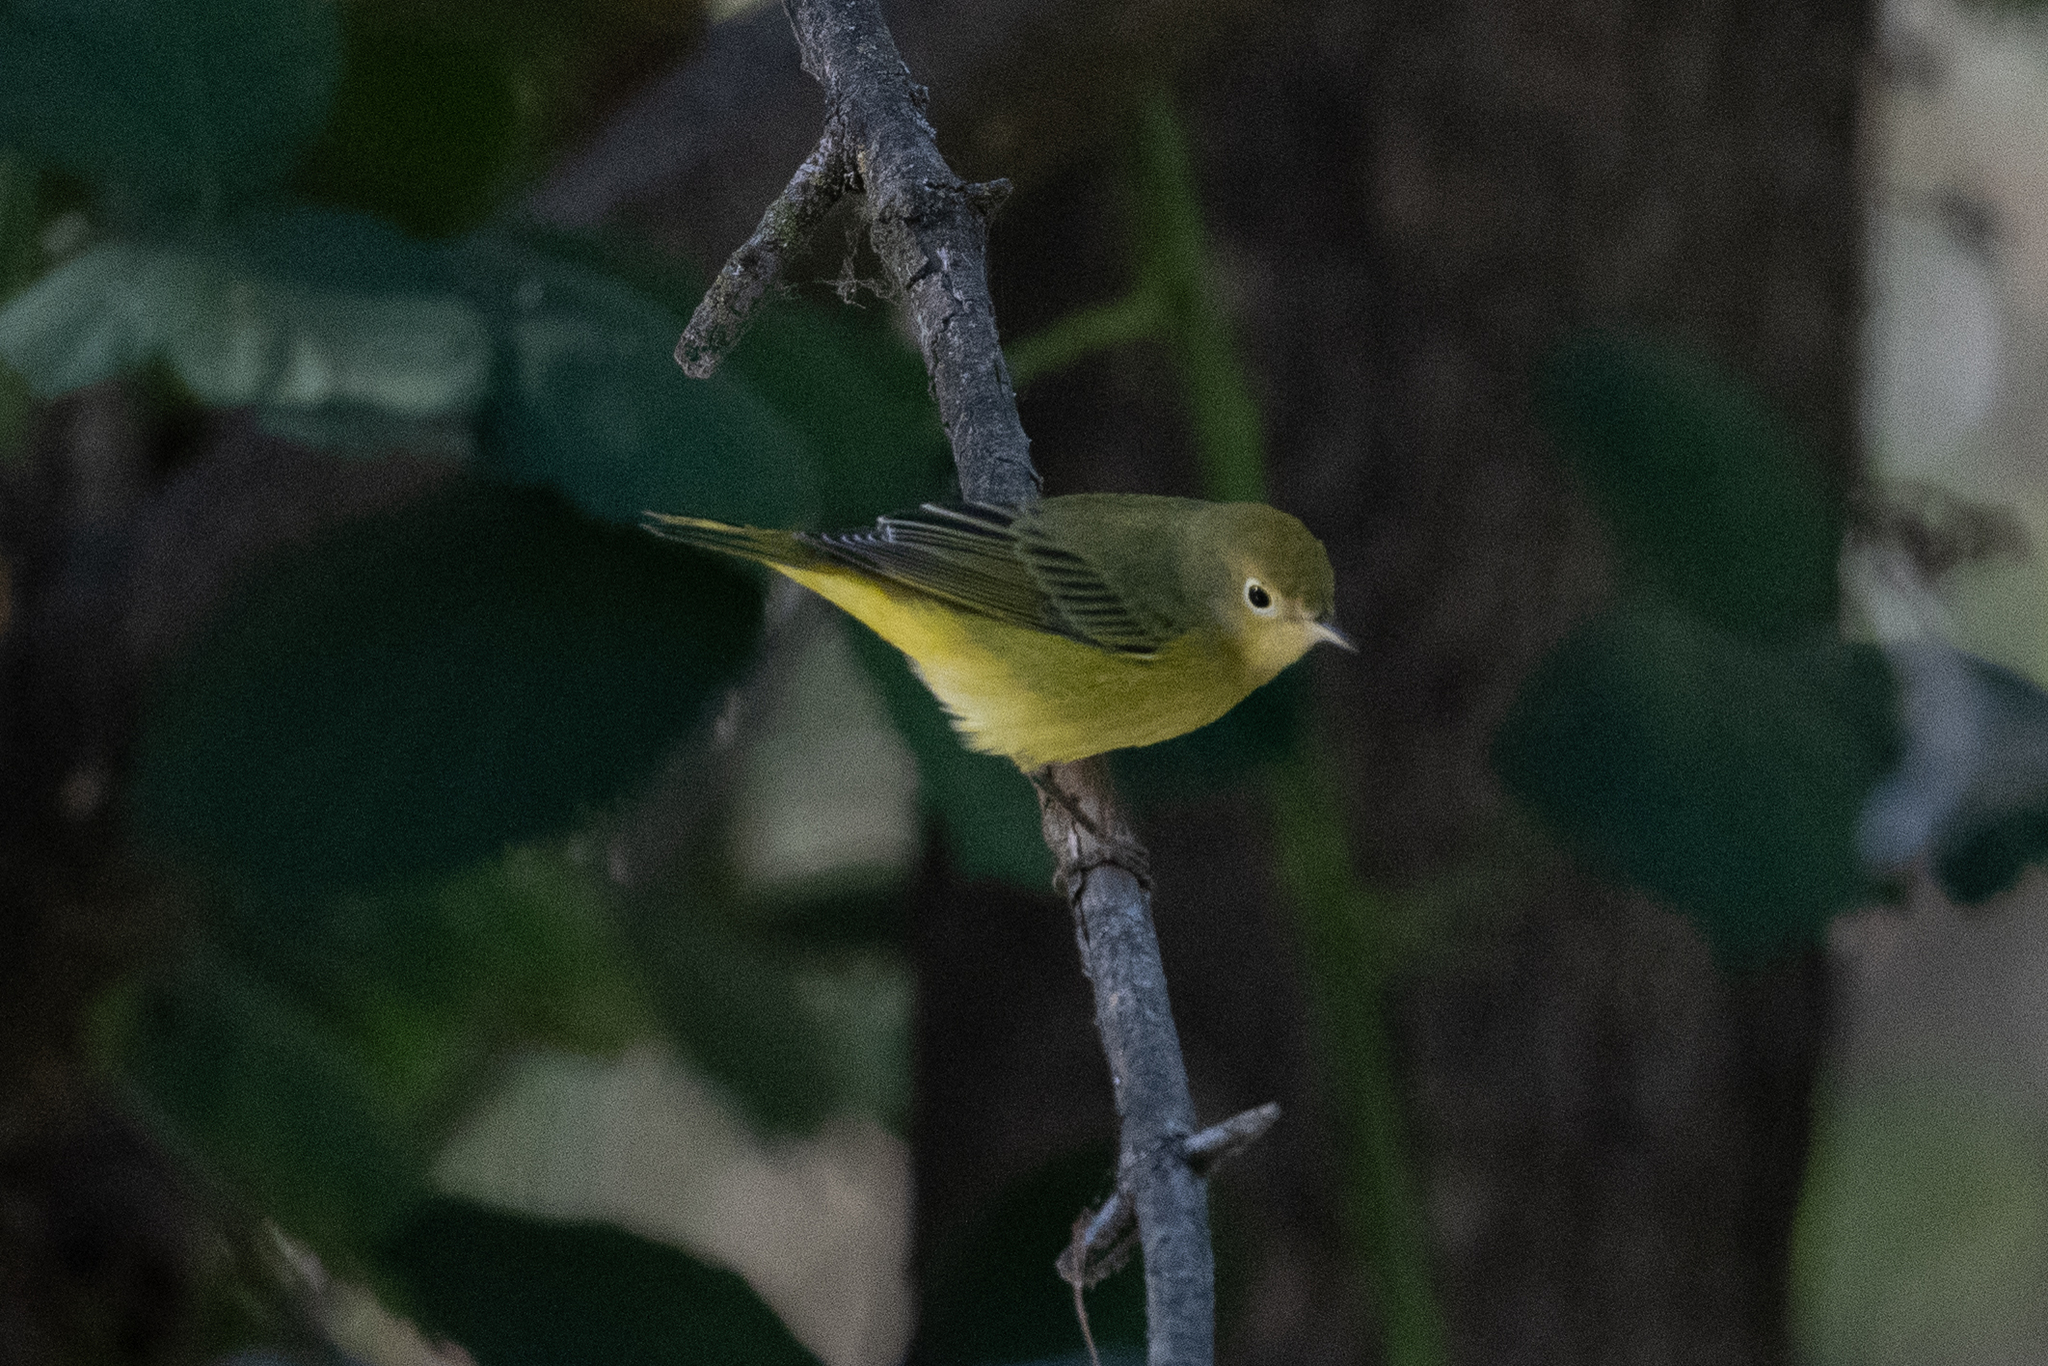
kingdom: Animalia
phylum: Chordata
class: Aves
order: Passeriformes
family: Parulidae
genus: Setophaga
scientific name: Setophaga petechia
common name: Yellow warbler
